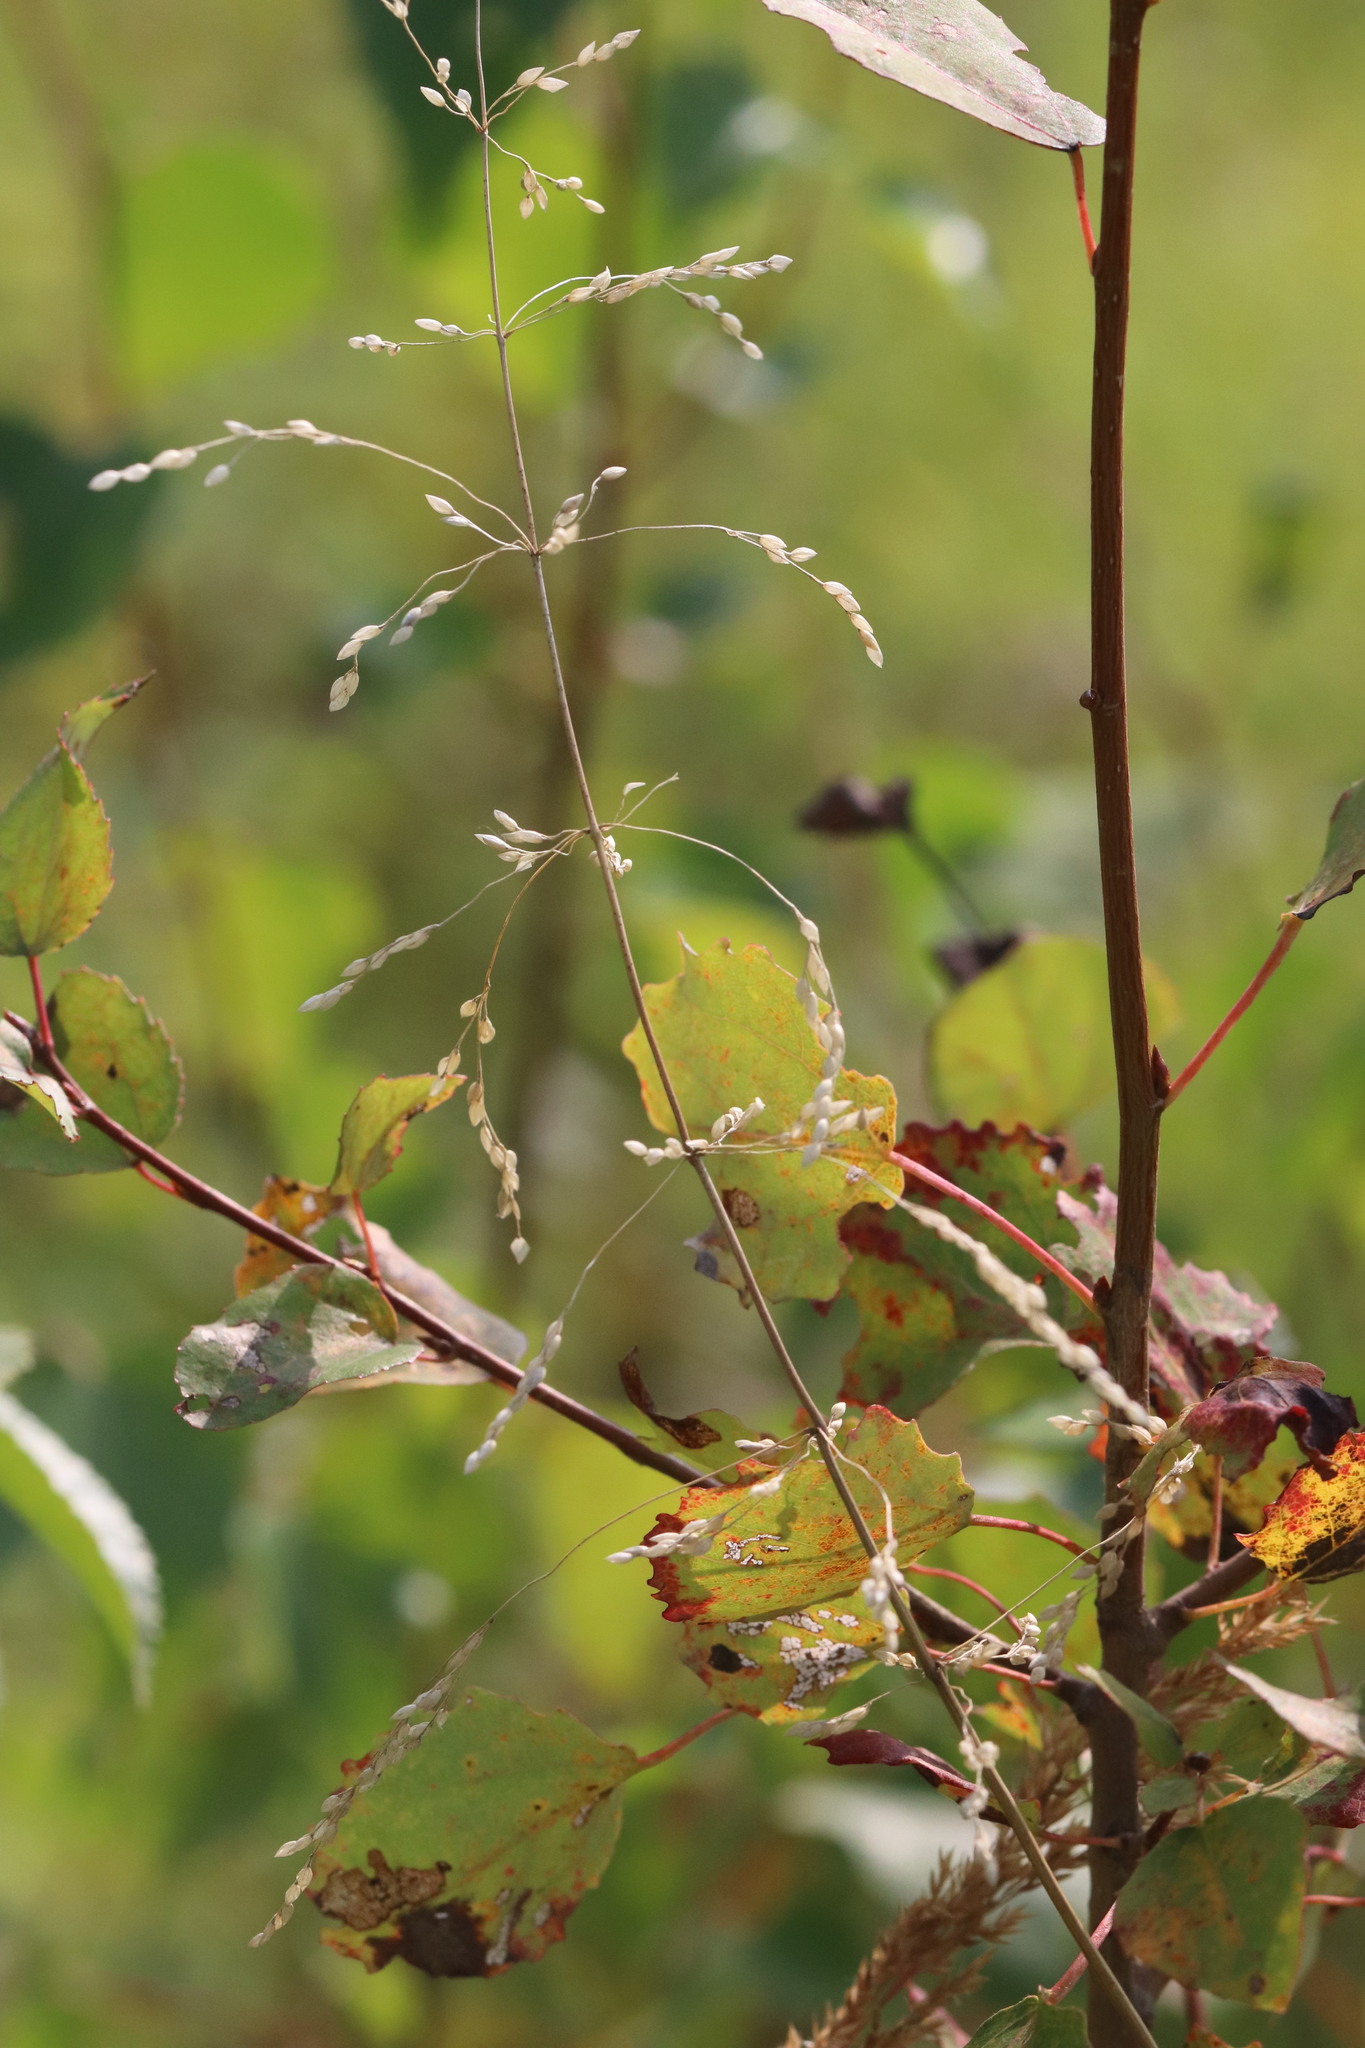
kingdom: Plantae
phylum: Tracheophyta
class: Liliopsida
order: Poales
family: Poaceae
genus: Milium
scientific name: Milium effusum
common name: Wood millet
